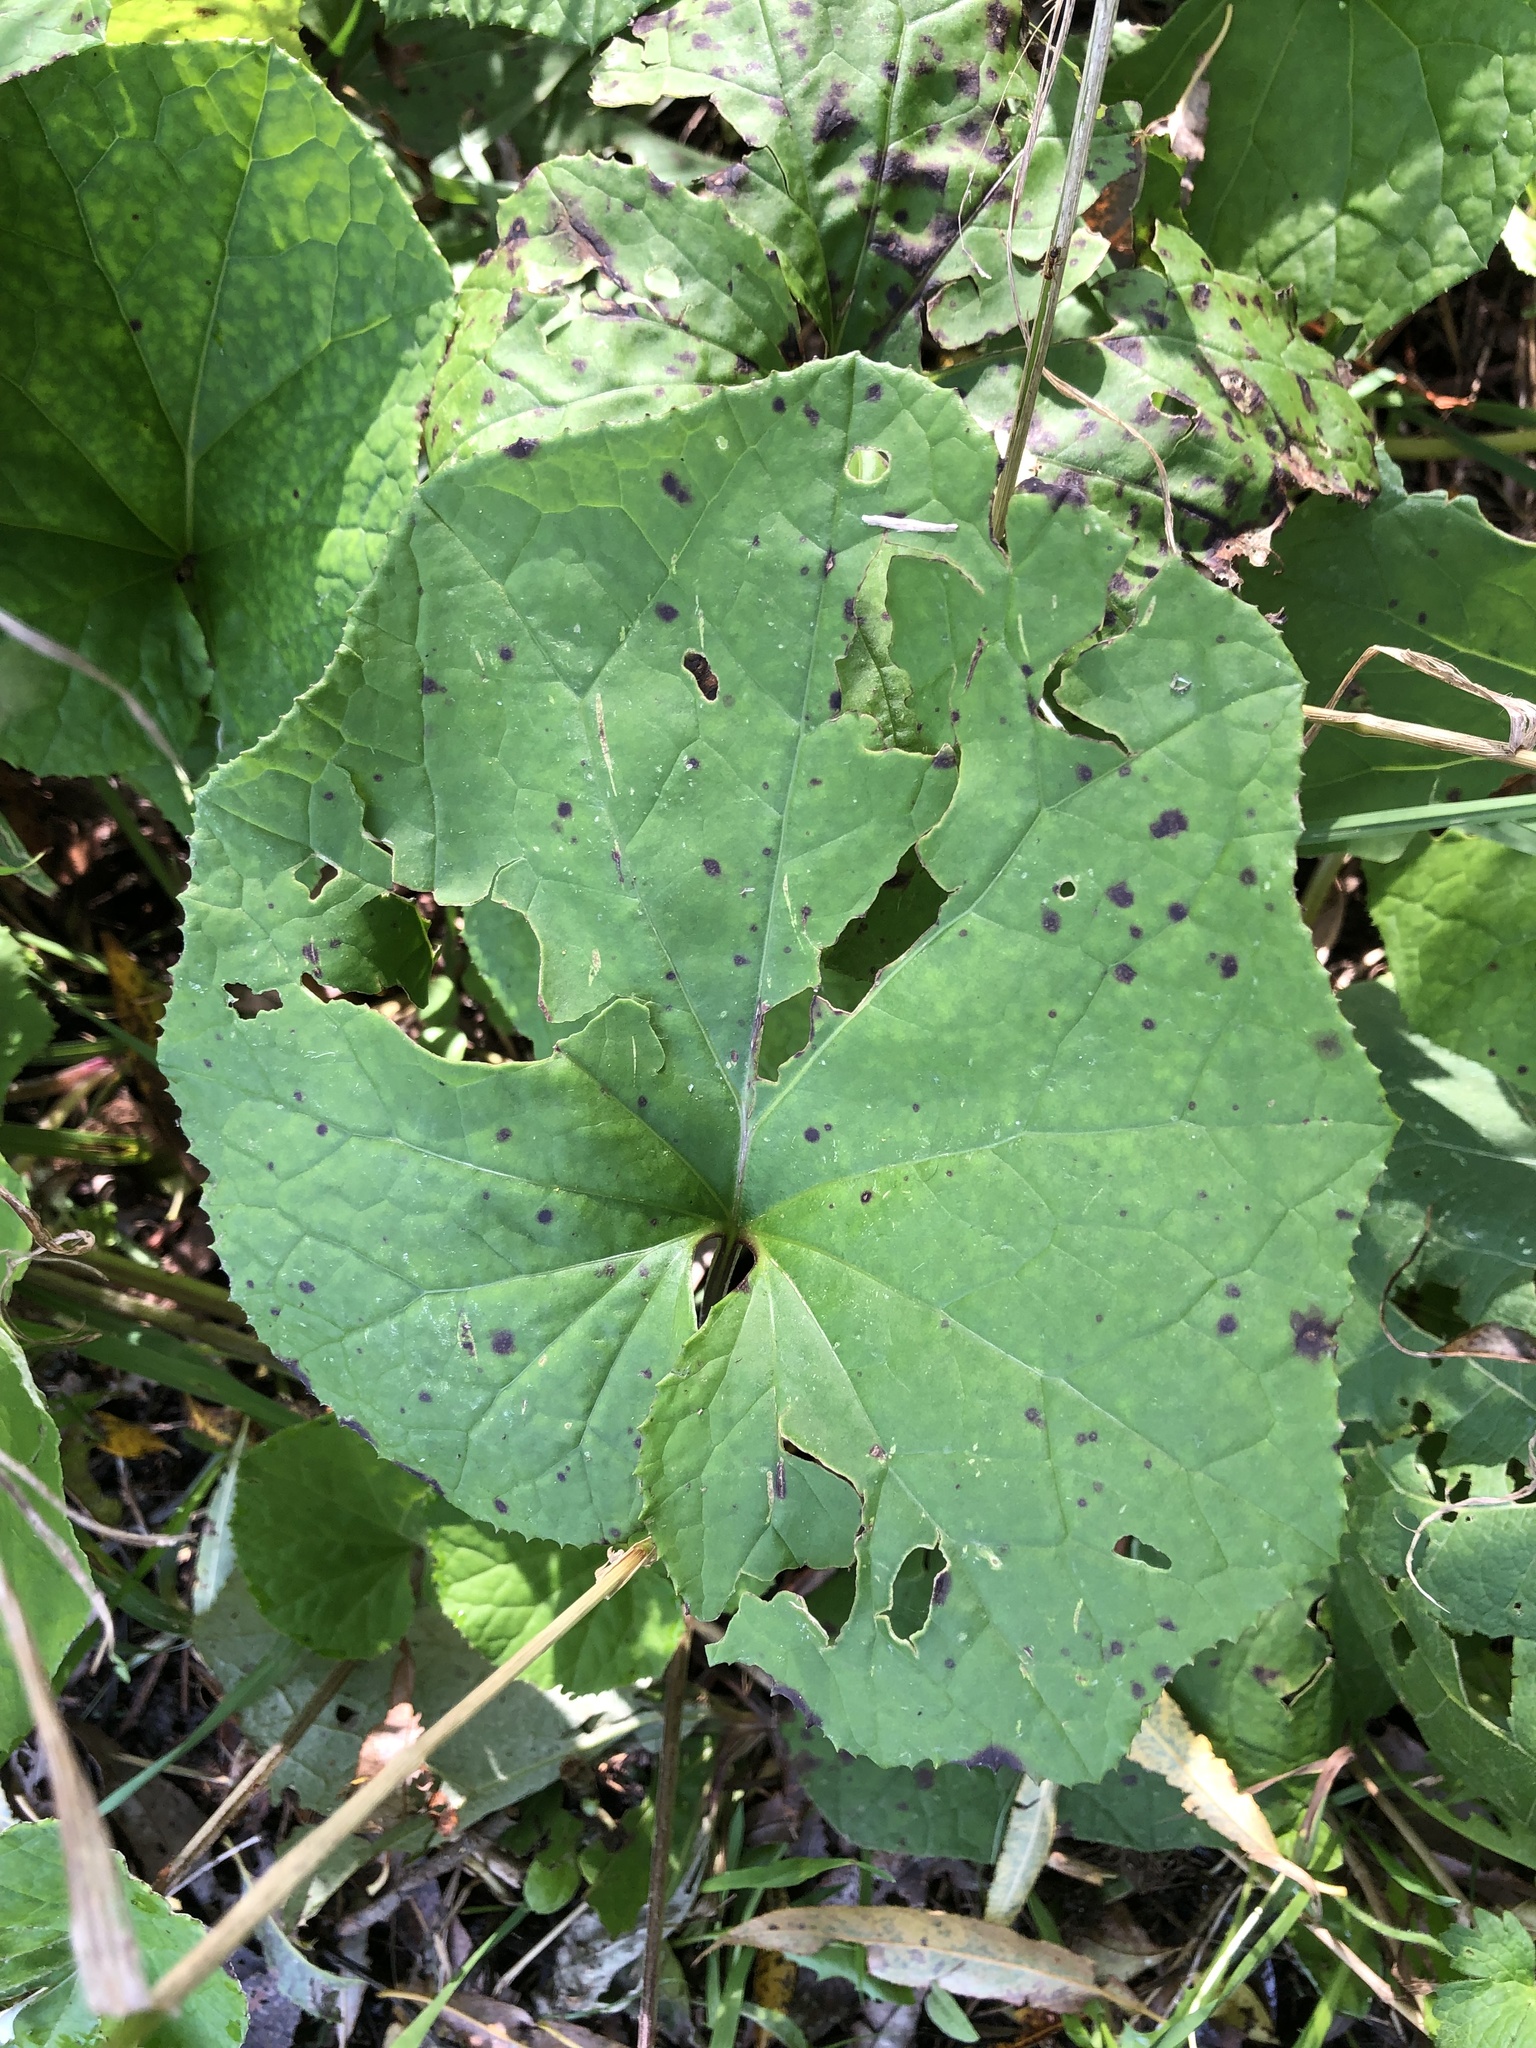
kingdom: Plantae
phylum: Tracheophyta
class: Magnoliopsida
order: Asterales
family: Asteraceae
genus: Tussilago
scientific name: Tussilago farfara
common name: Coltsfoot
